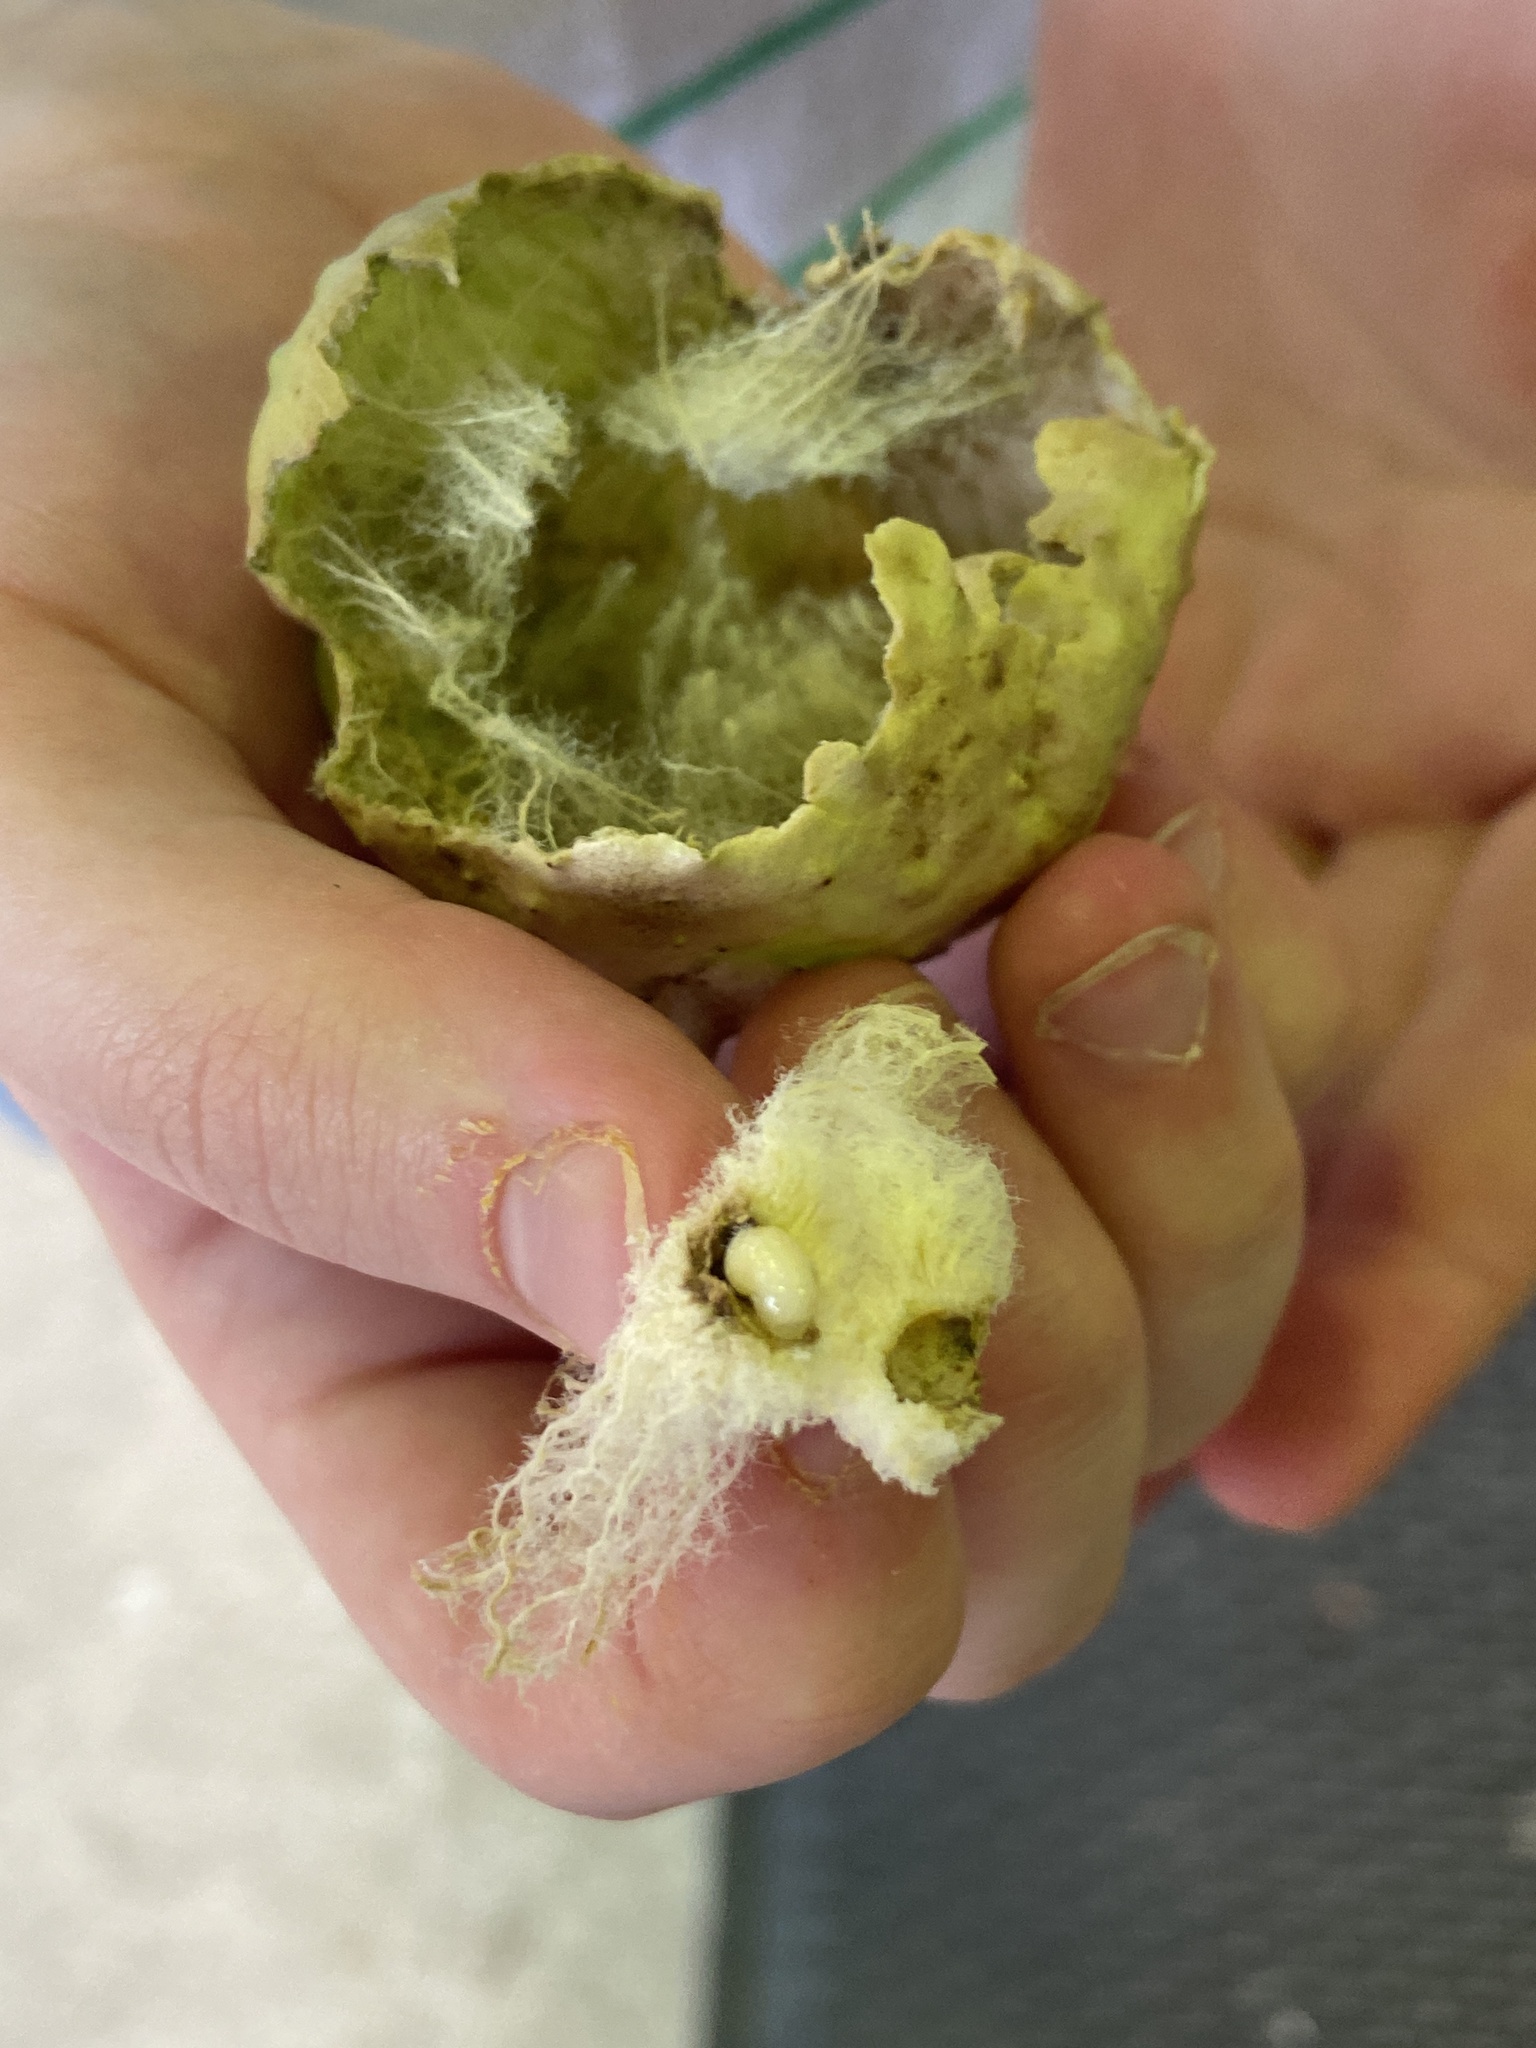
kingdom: Animalia
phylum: Arthropoda
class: Insecta
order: Hymenoptera
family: Cynipidae
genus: Amphibolips
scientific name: Amphibolips
